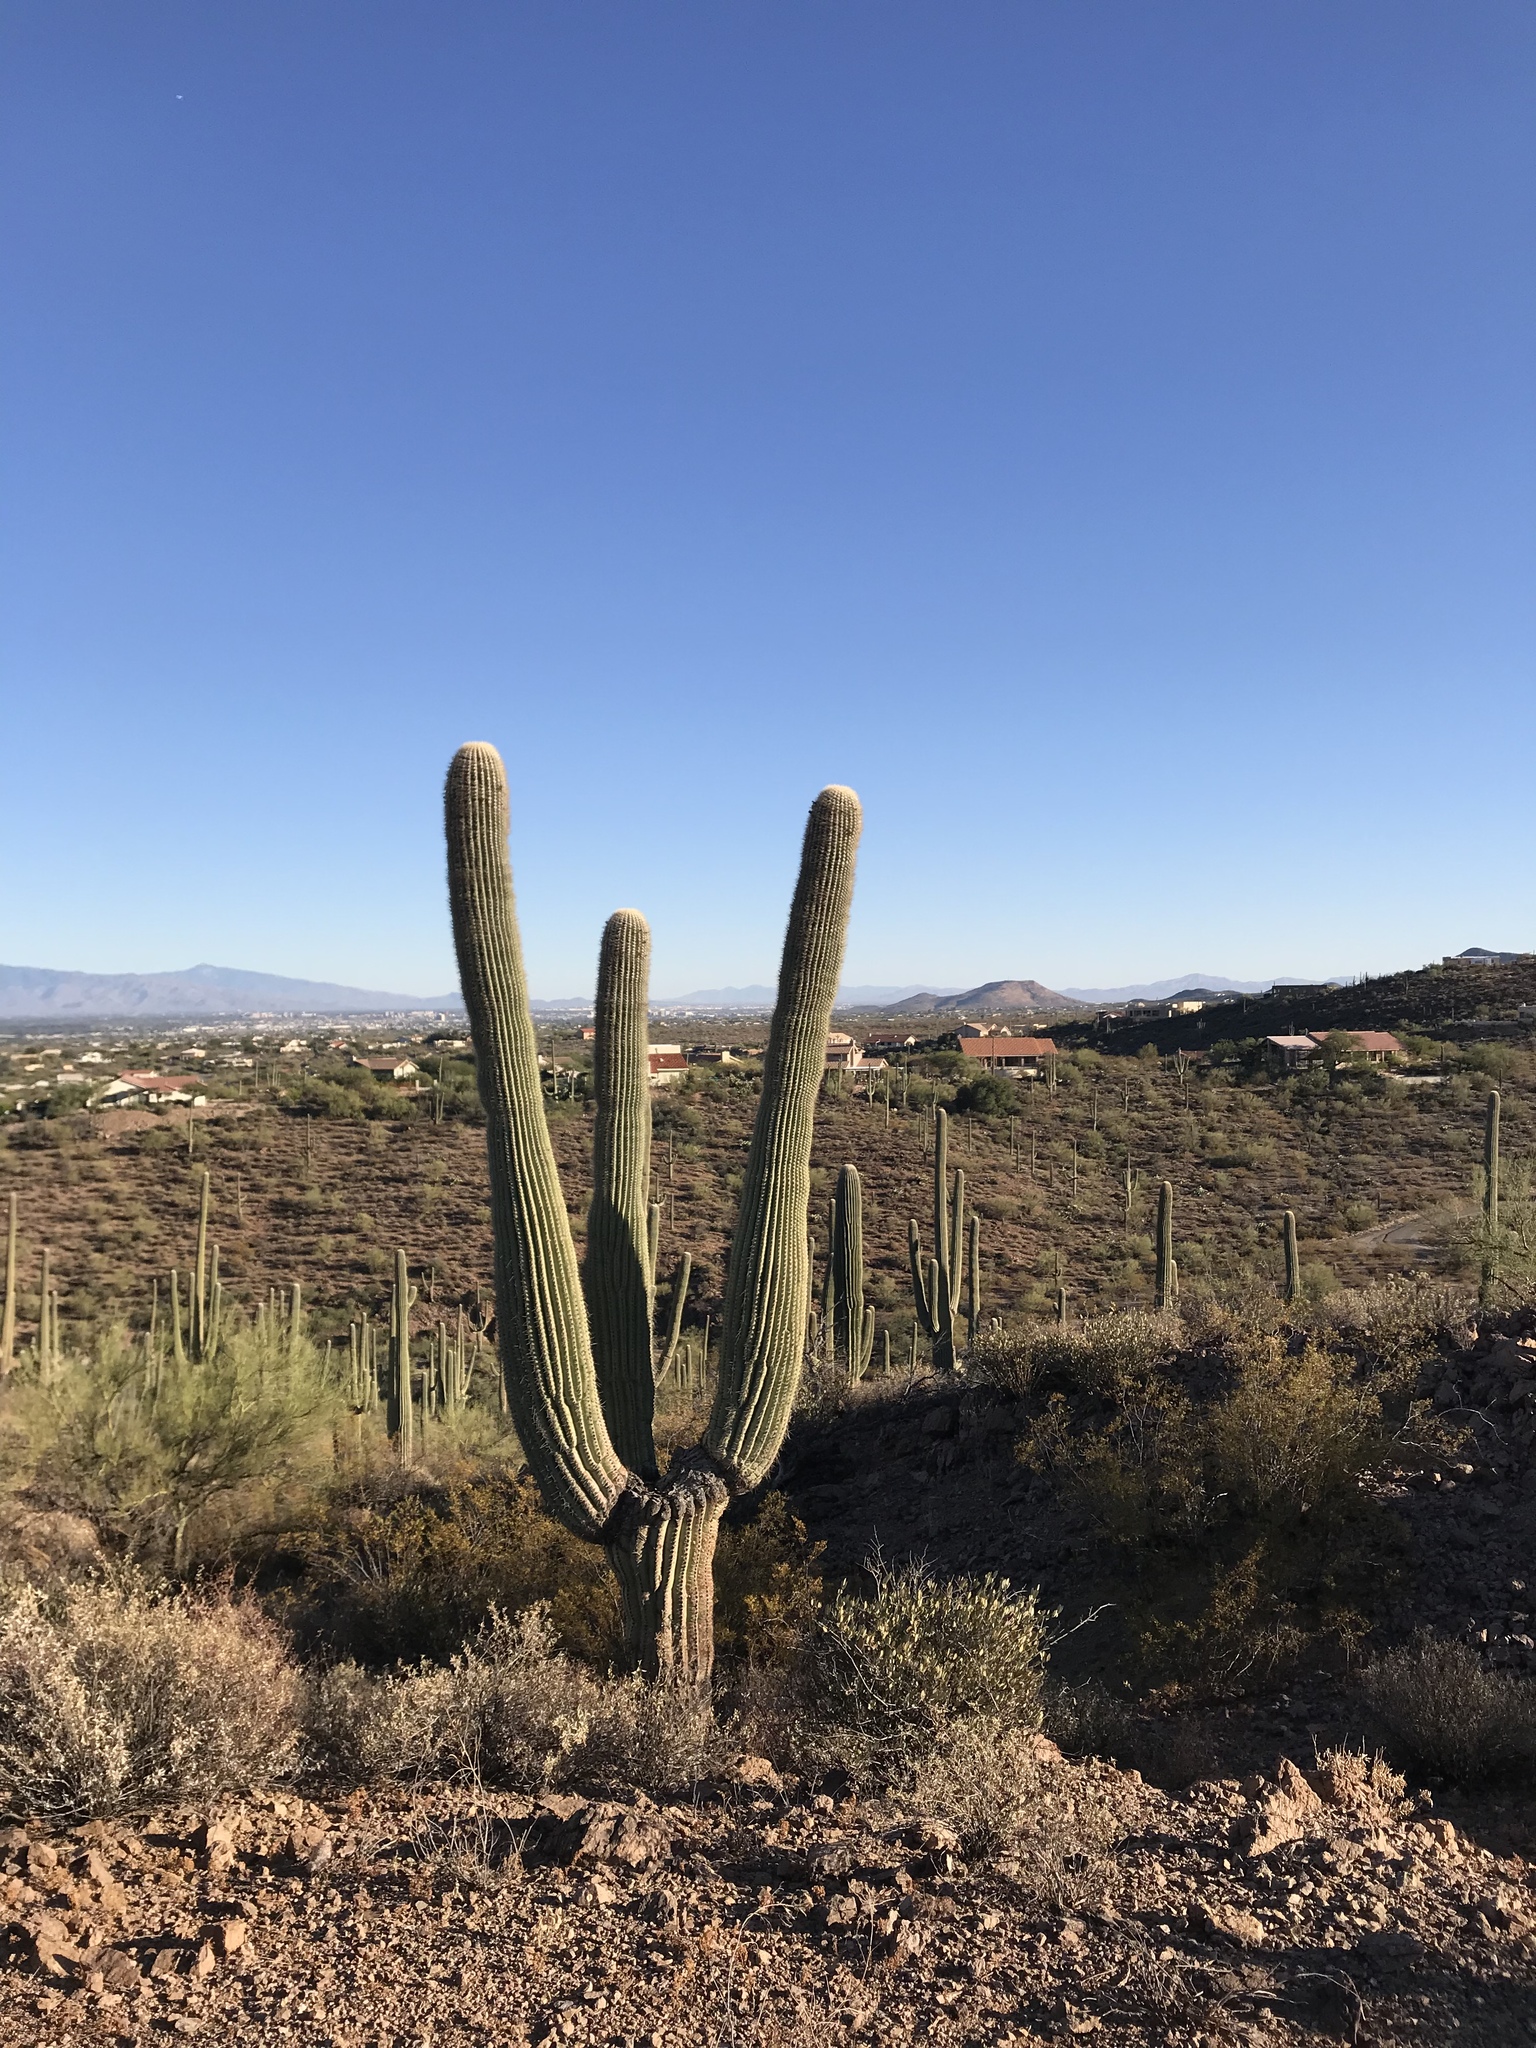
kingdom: Plantae
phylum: Tracheophyta
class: Magnoliopsida
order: Caryophyllales
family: Cactaceae
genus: Carnegiea
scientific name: Carnegiea gigantea
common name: Saguaro
